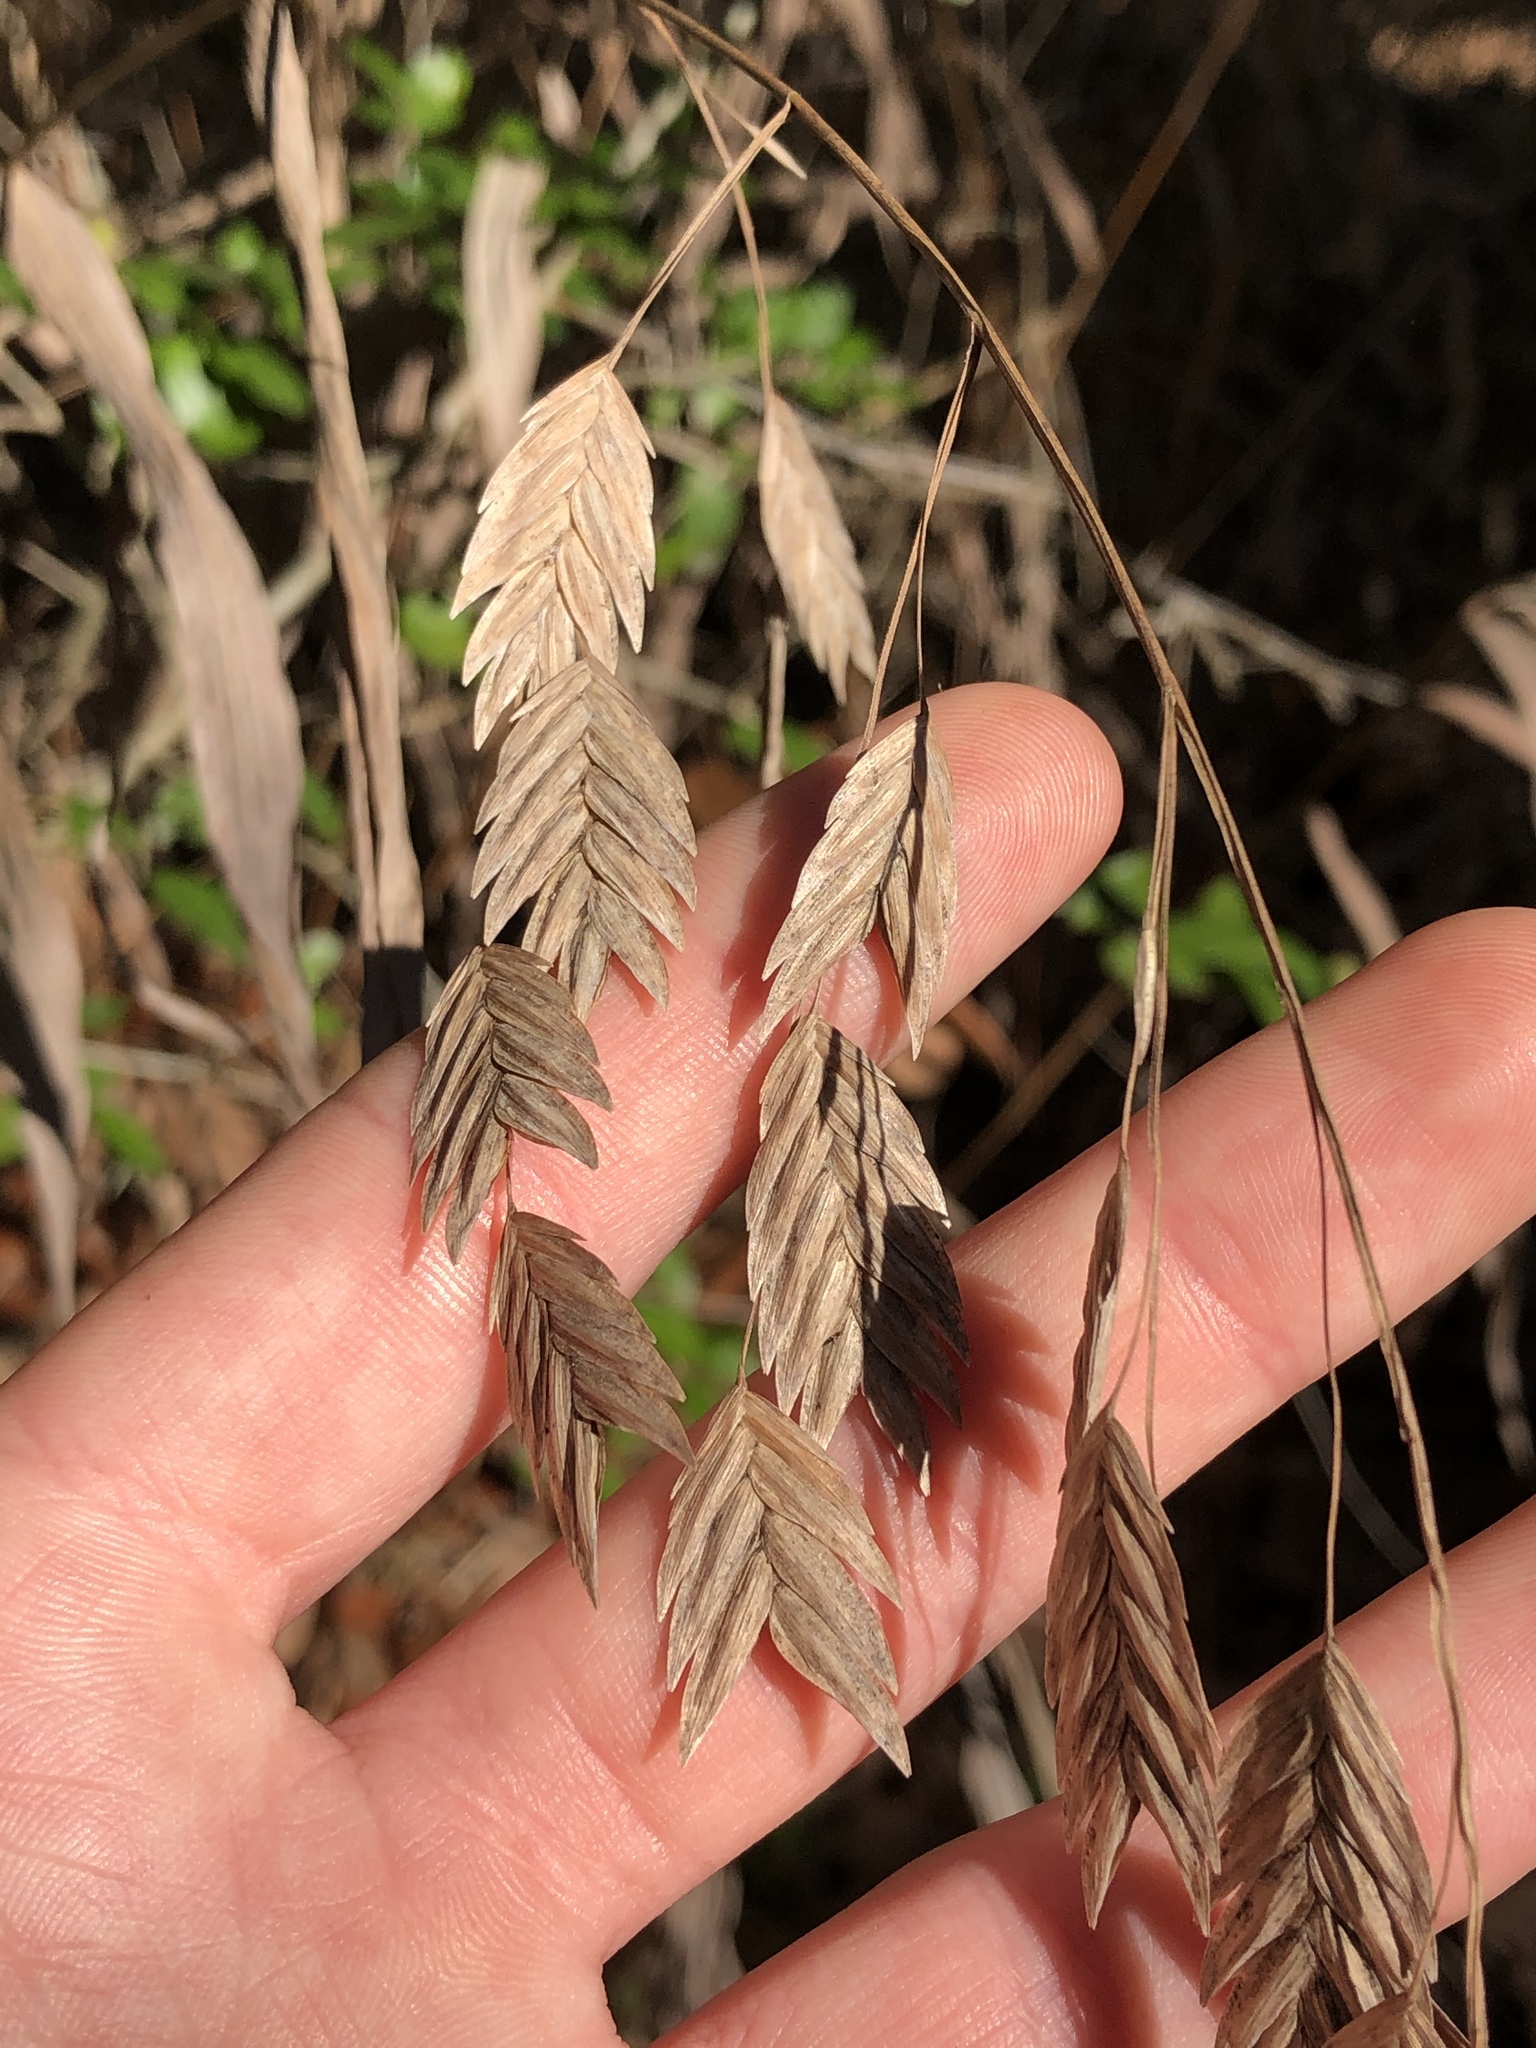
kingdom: Plantae
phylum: Tracheophyta
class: Liliopsida
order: Poales
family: Poaceae
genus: Chasmanthium
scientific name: Chasmanthium latifolium
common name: Broad-leaved chasmanthium
